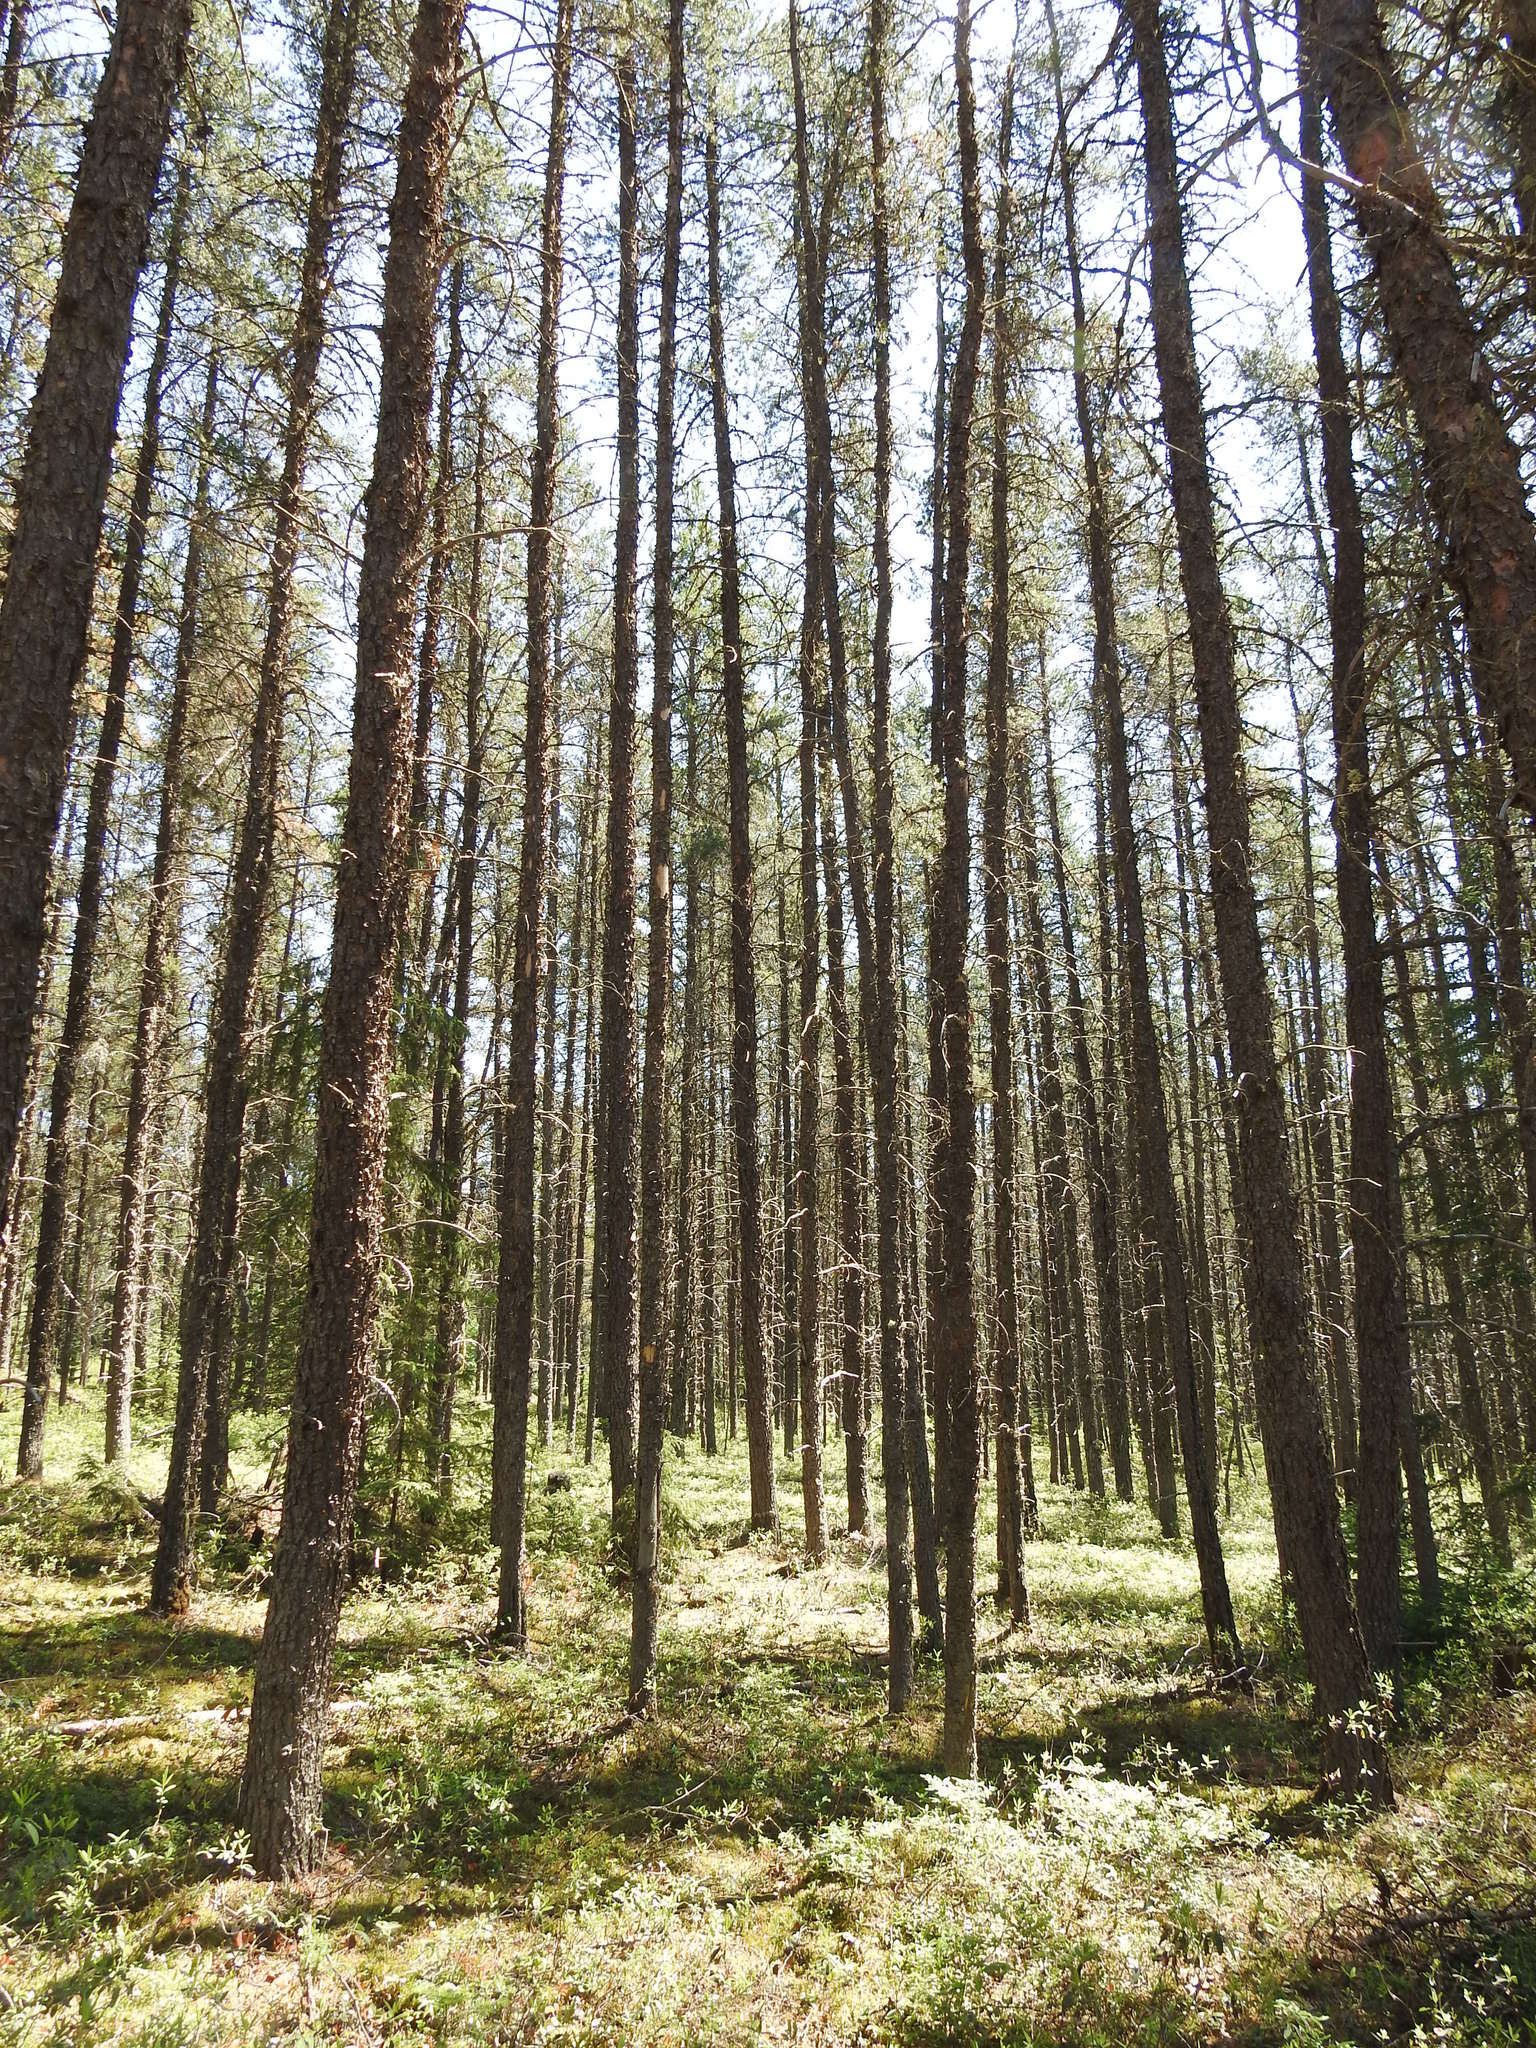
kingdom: Plantae
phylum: Tracheophyta
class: Pinopsida
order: Pinales
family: Pinaceae
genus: Pinus
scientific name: Pinus banksiana
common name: Jack pine
